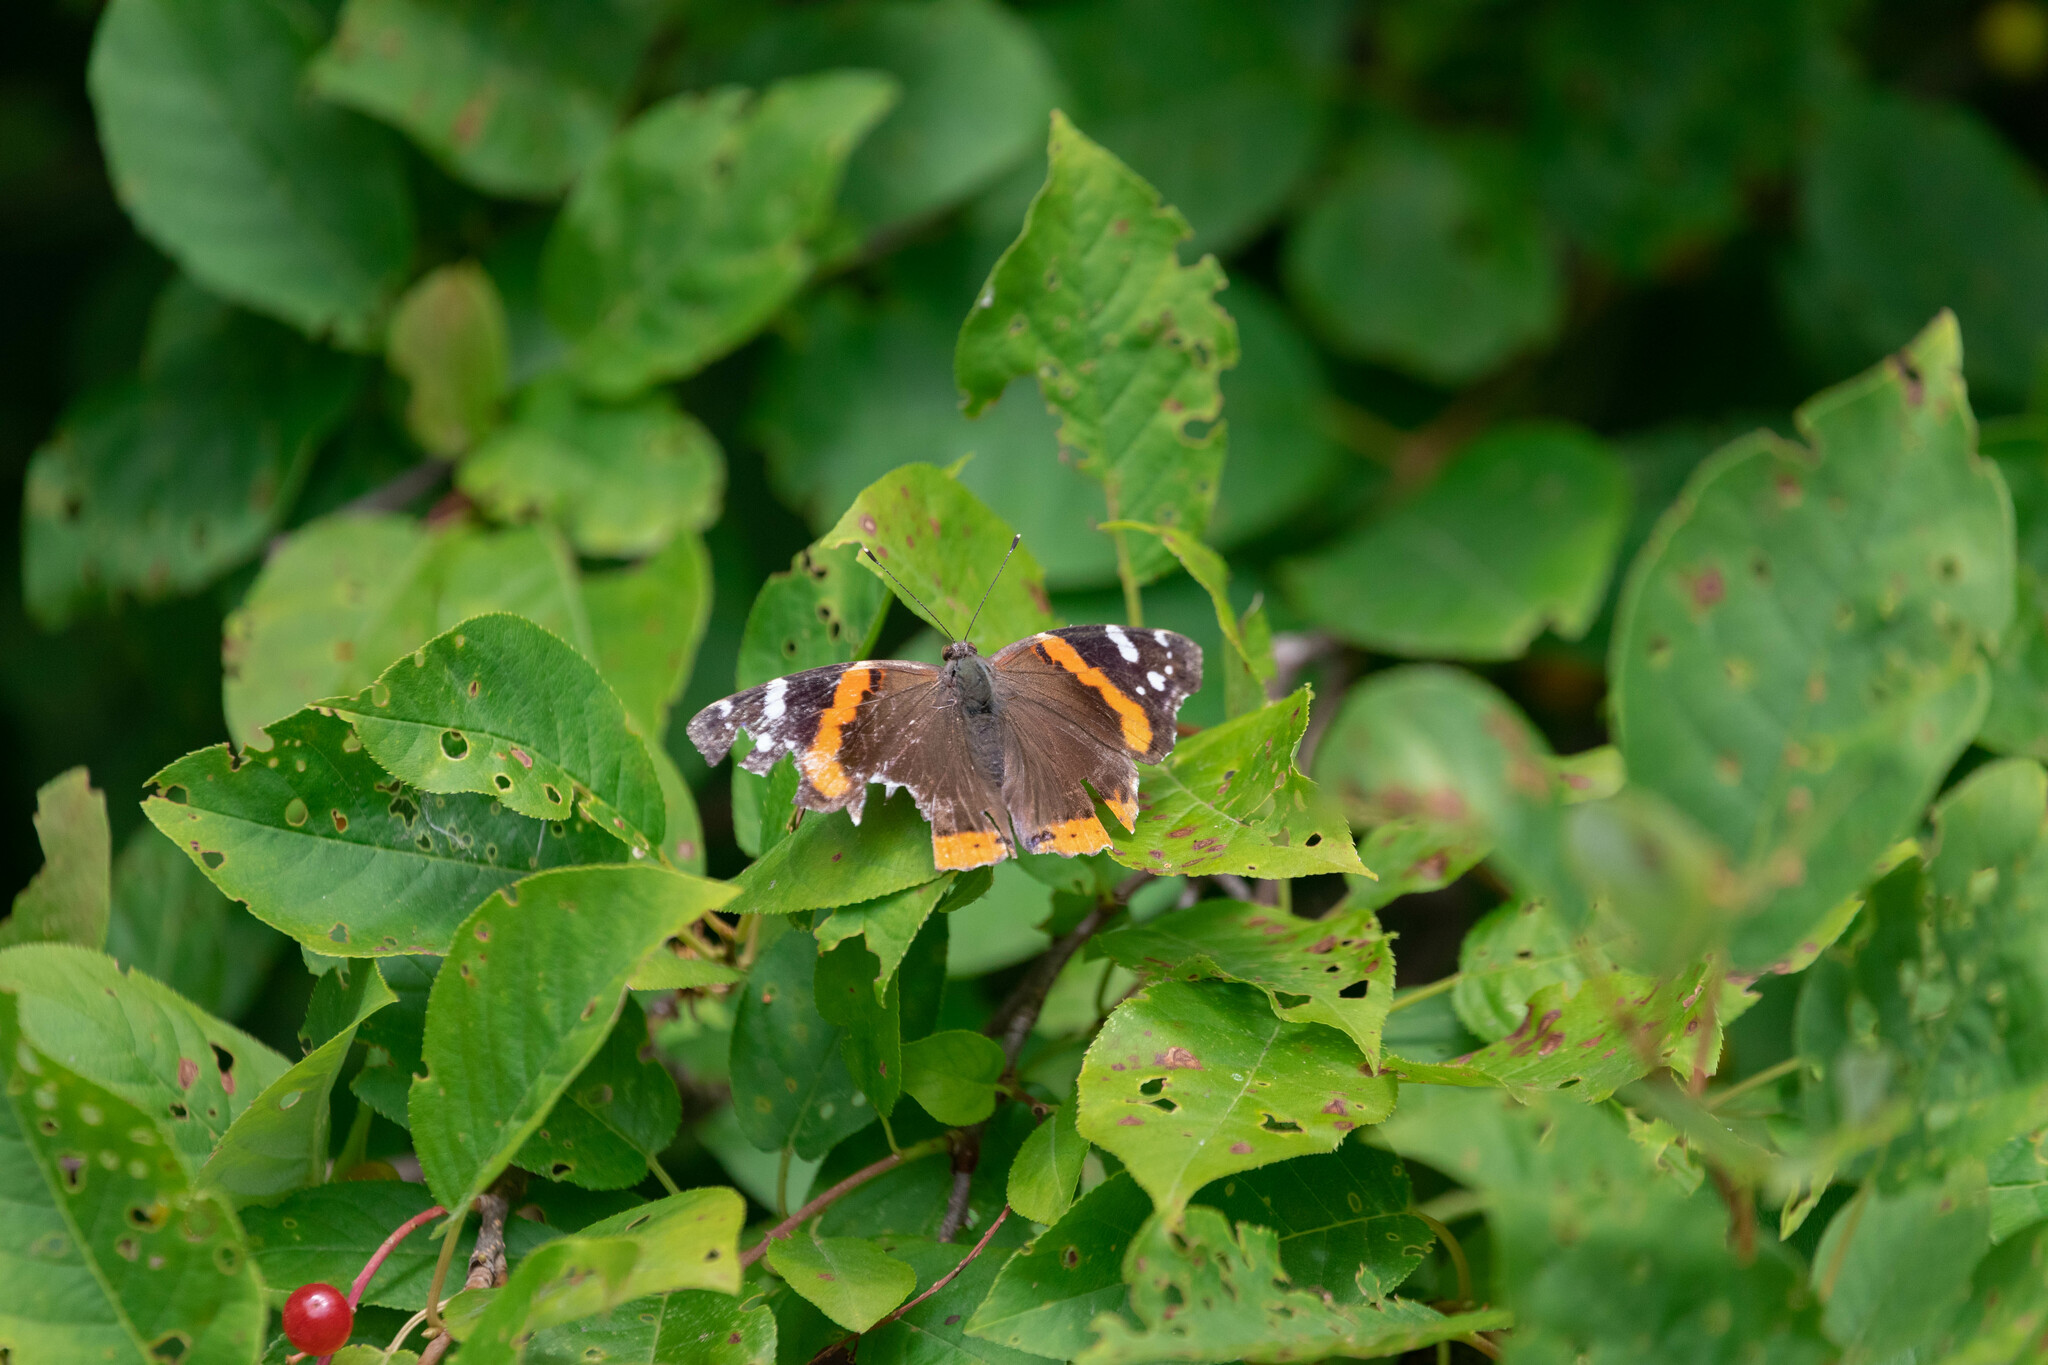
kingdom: Animalia
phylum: Arthropoda
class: Insecta
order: Lepidoptera
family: Nymphalidae
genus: Vanessa
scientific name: Vanessa atalanta
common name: Red admiral
